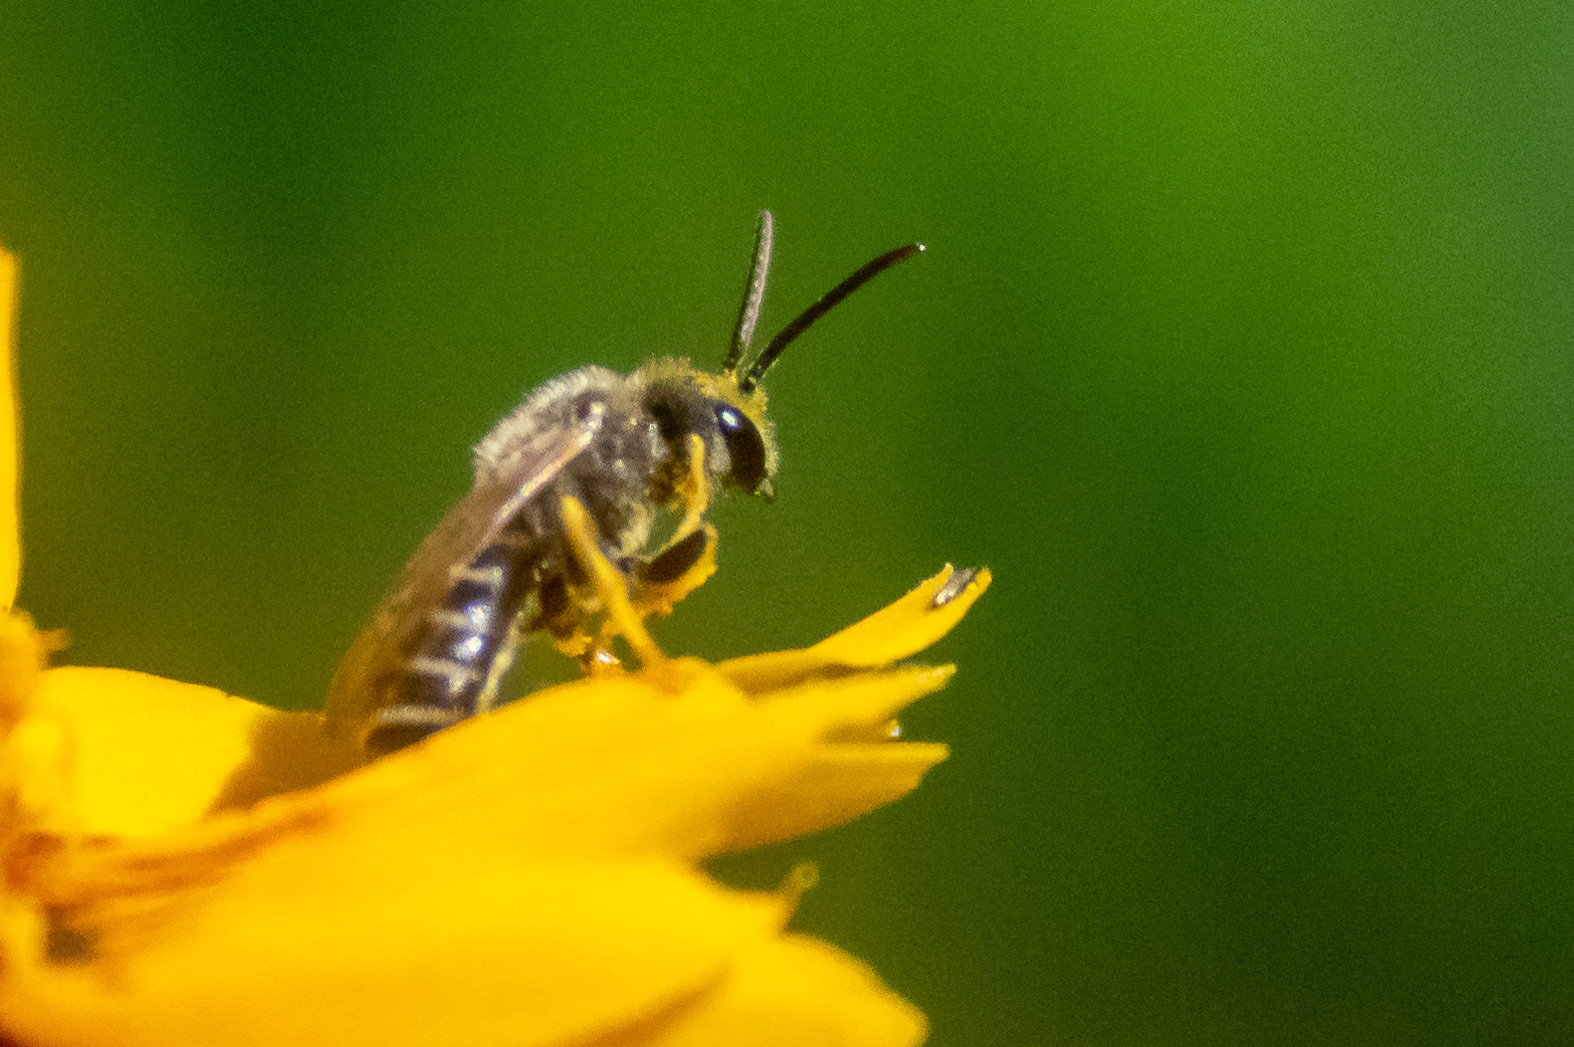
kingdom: Animalia
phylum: Arthropoda
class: Insecta
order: Hymenoptera
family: Halictidae
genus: Halictus
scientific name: Halictus ligatus
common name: Ligated furrow bee
